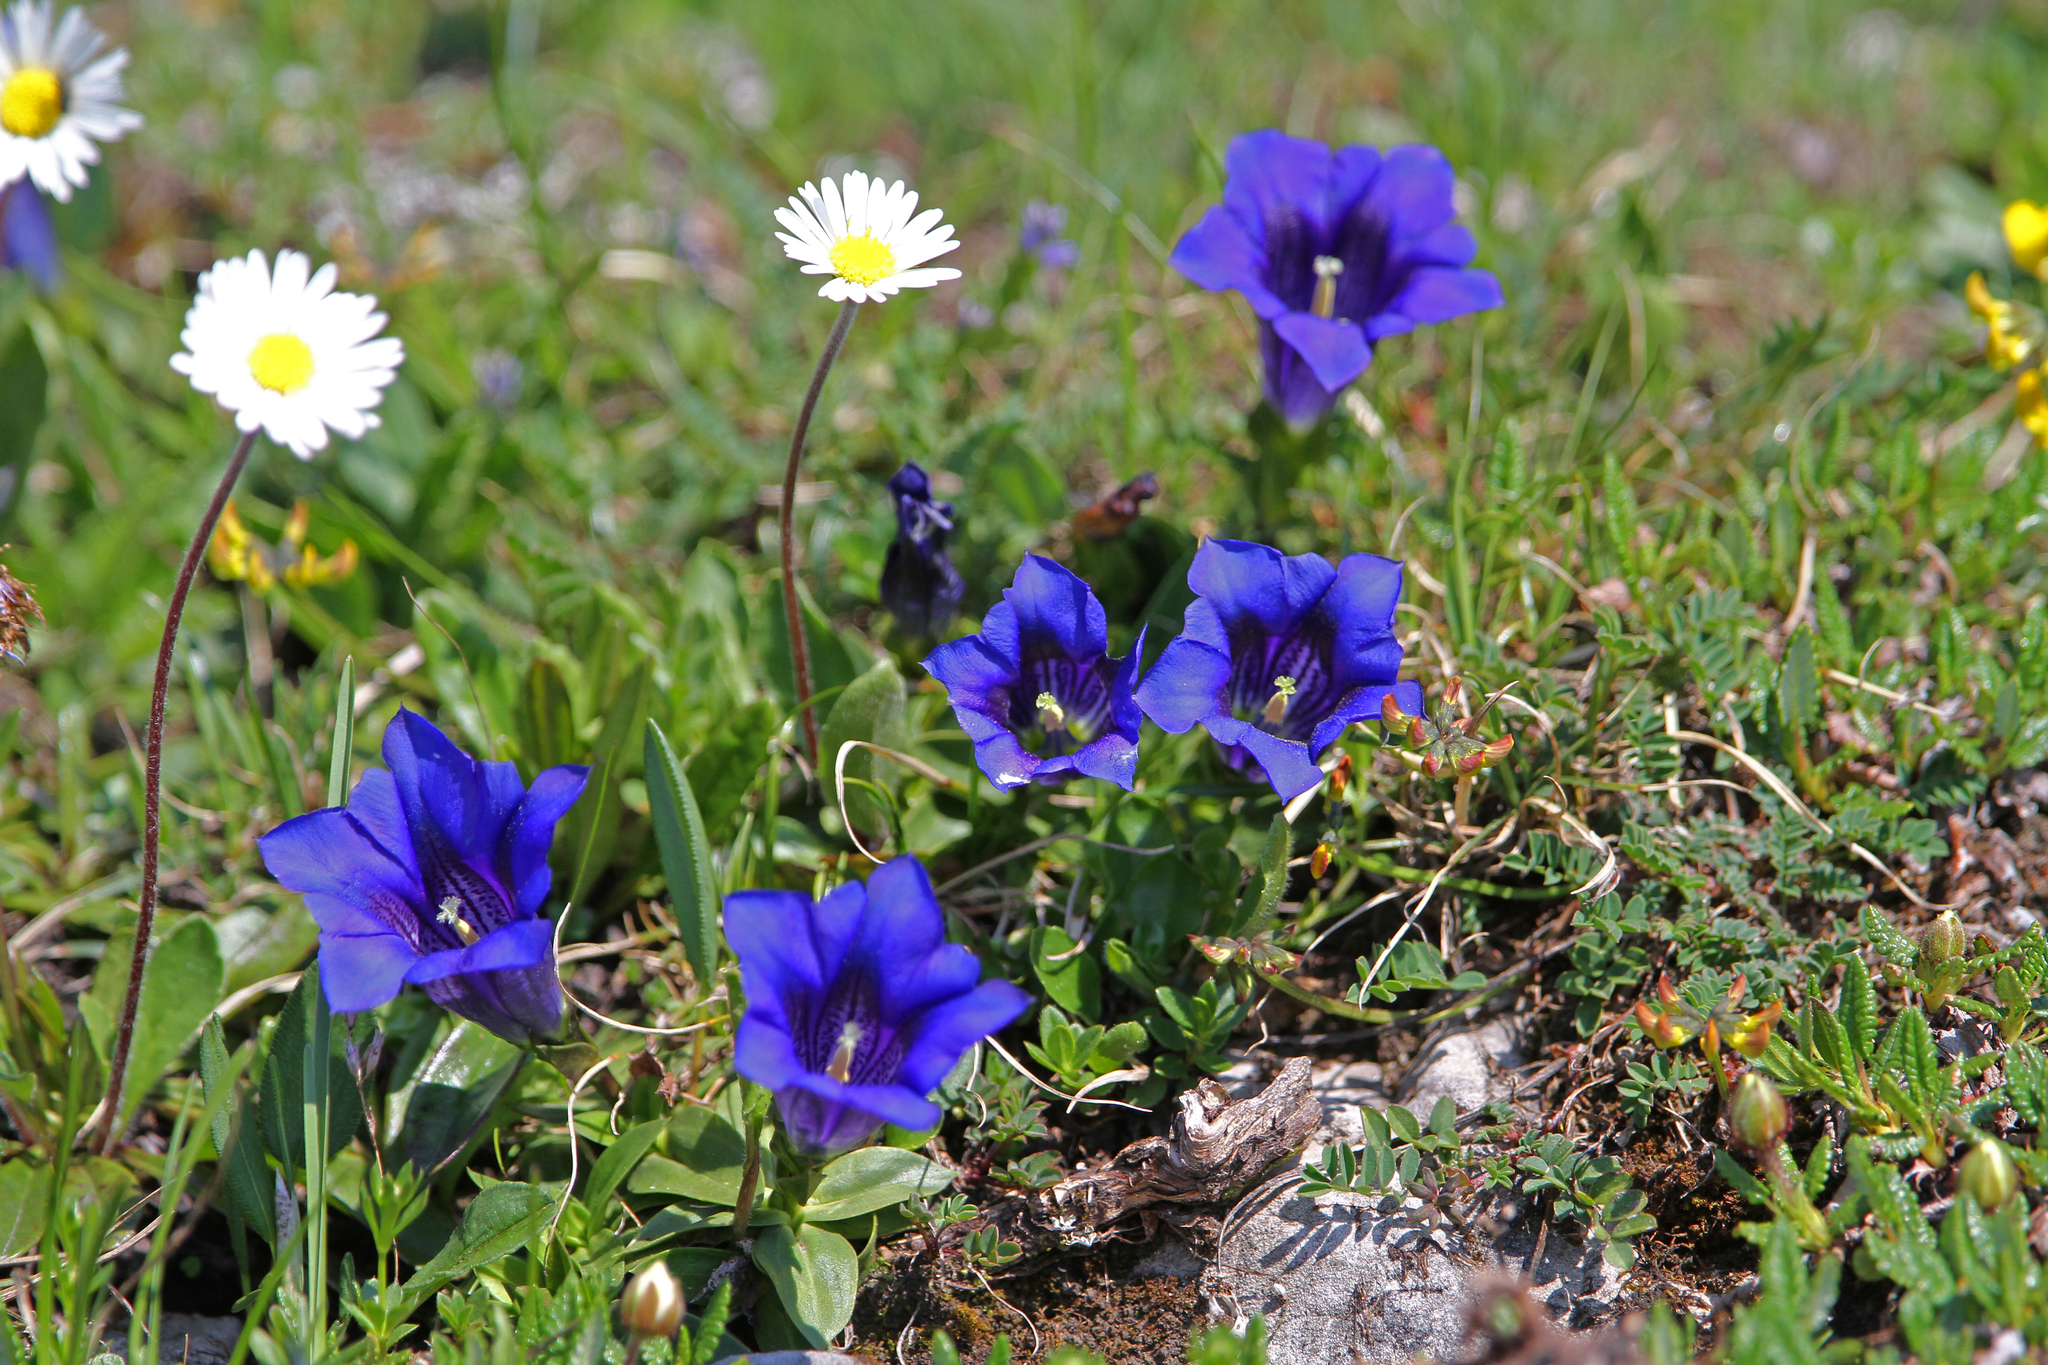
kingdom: Plantae
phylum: Tracheophyta
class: Magnoliopsida
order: Gentianales
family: Gentianaceae
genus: Gentiana
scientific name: Gentiana clusii
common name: Trumpet gentian
